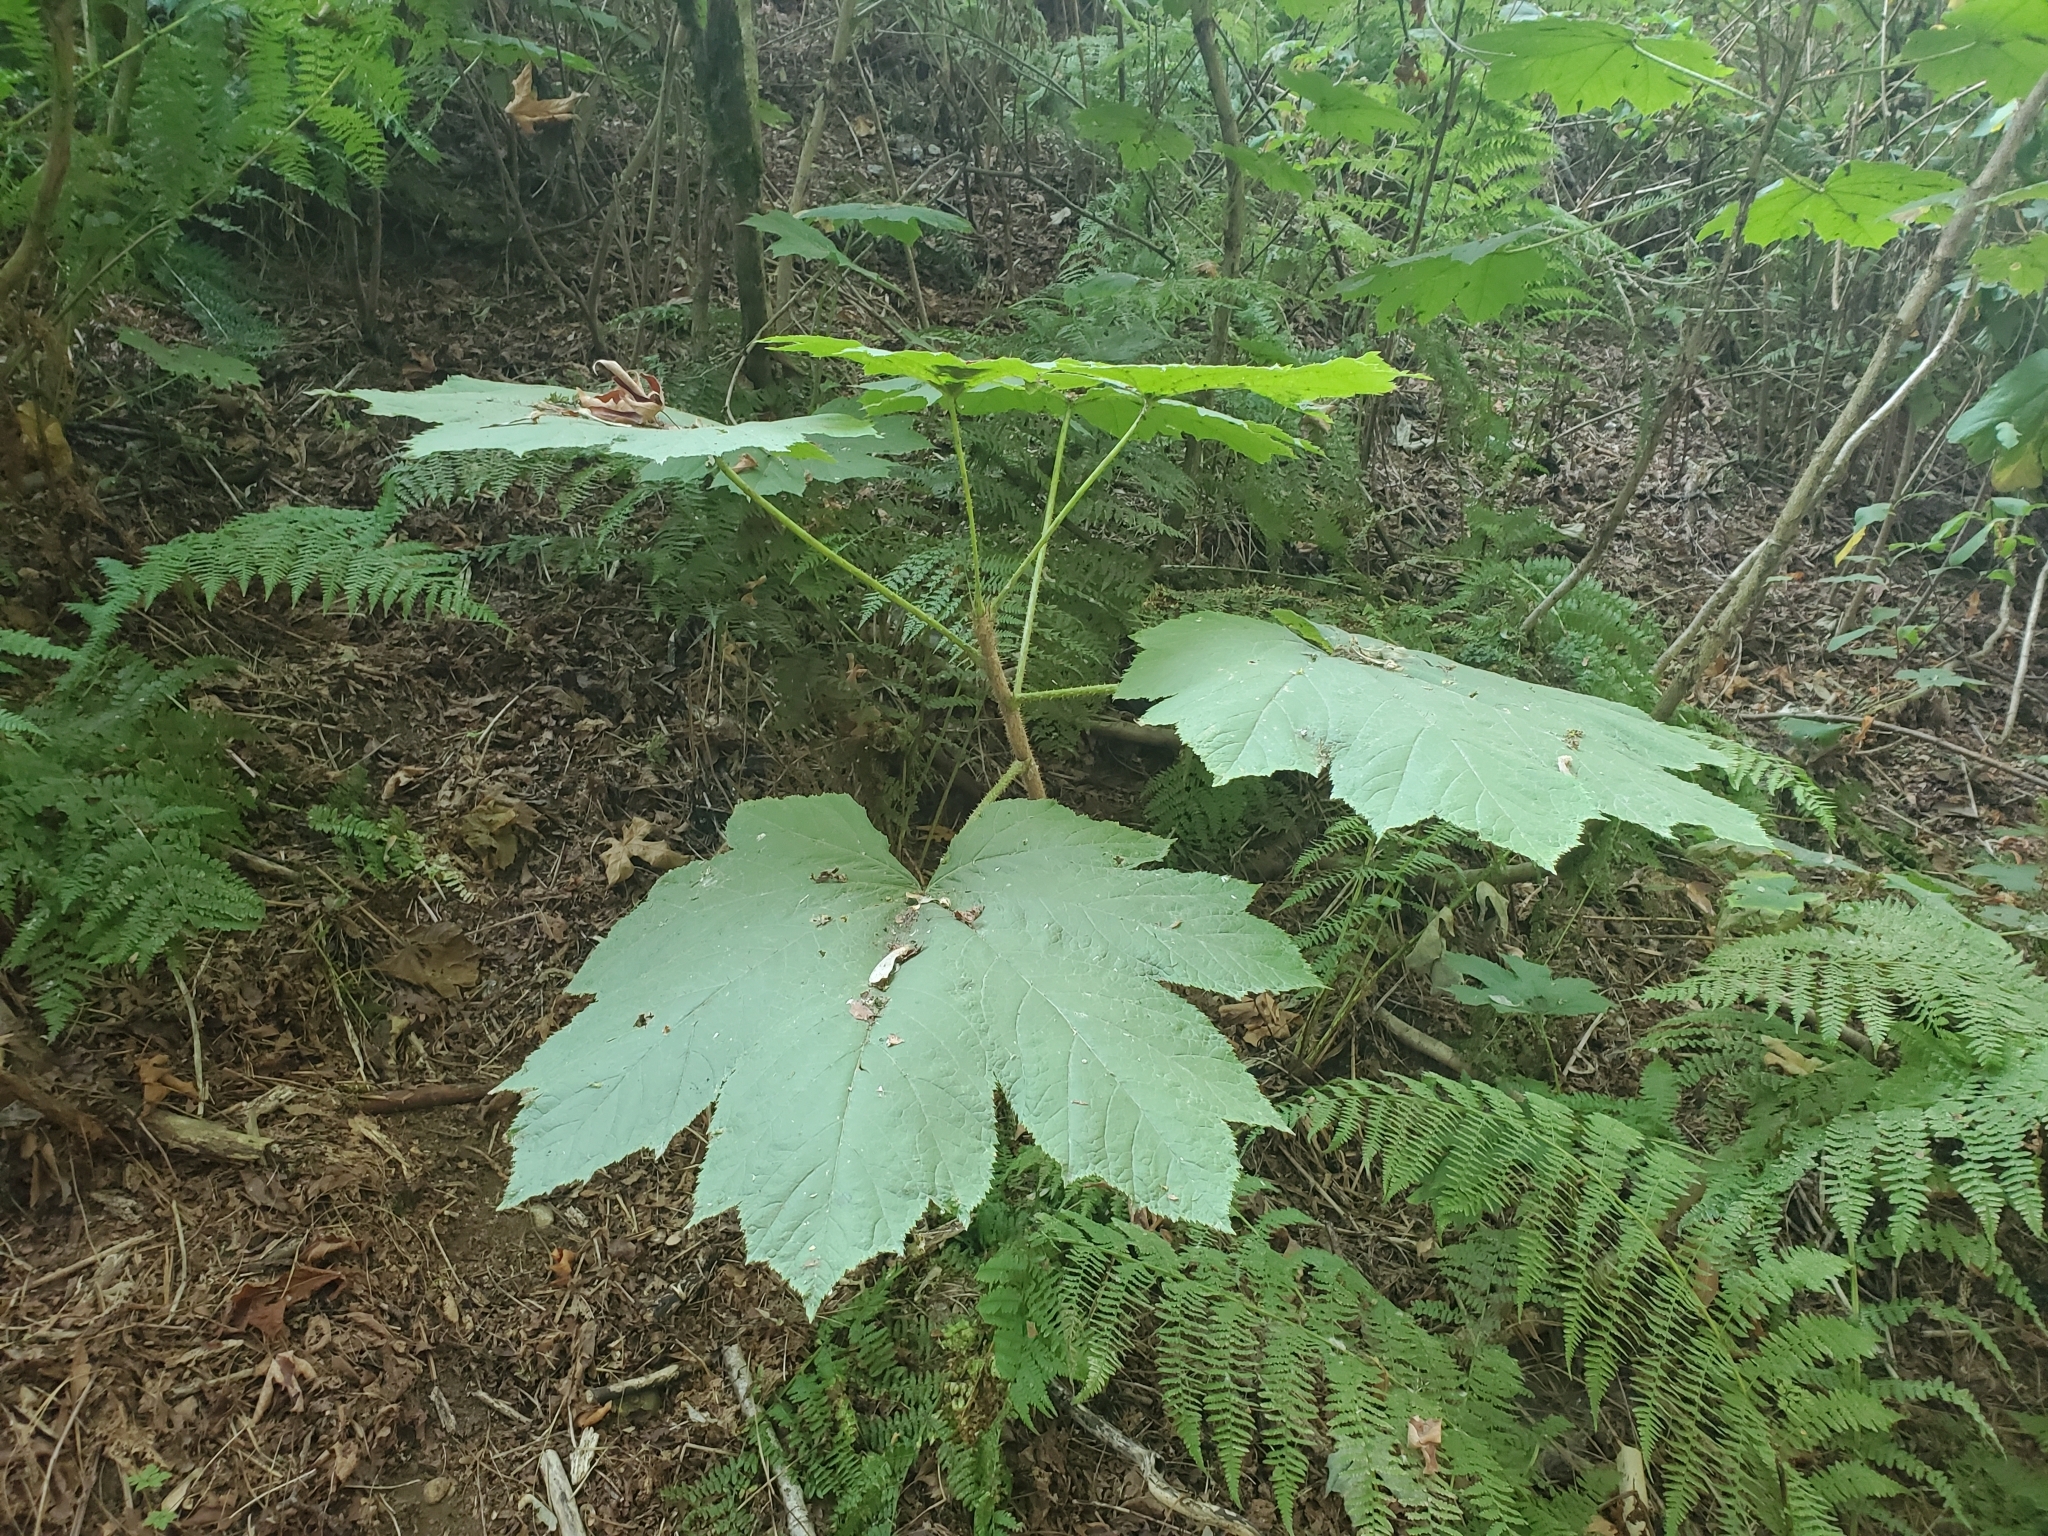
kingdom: Plantae
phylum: Tracheophyta
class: Magnoliopsida
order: Apiales
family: Araliaceae
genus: Oplopanax
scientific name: Oplopanax horridus
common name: Devil's walking-stick
